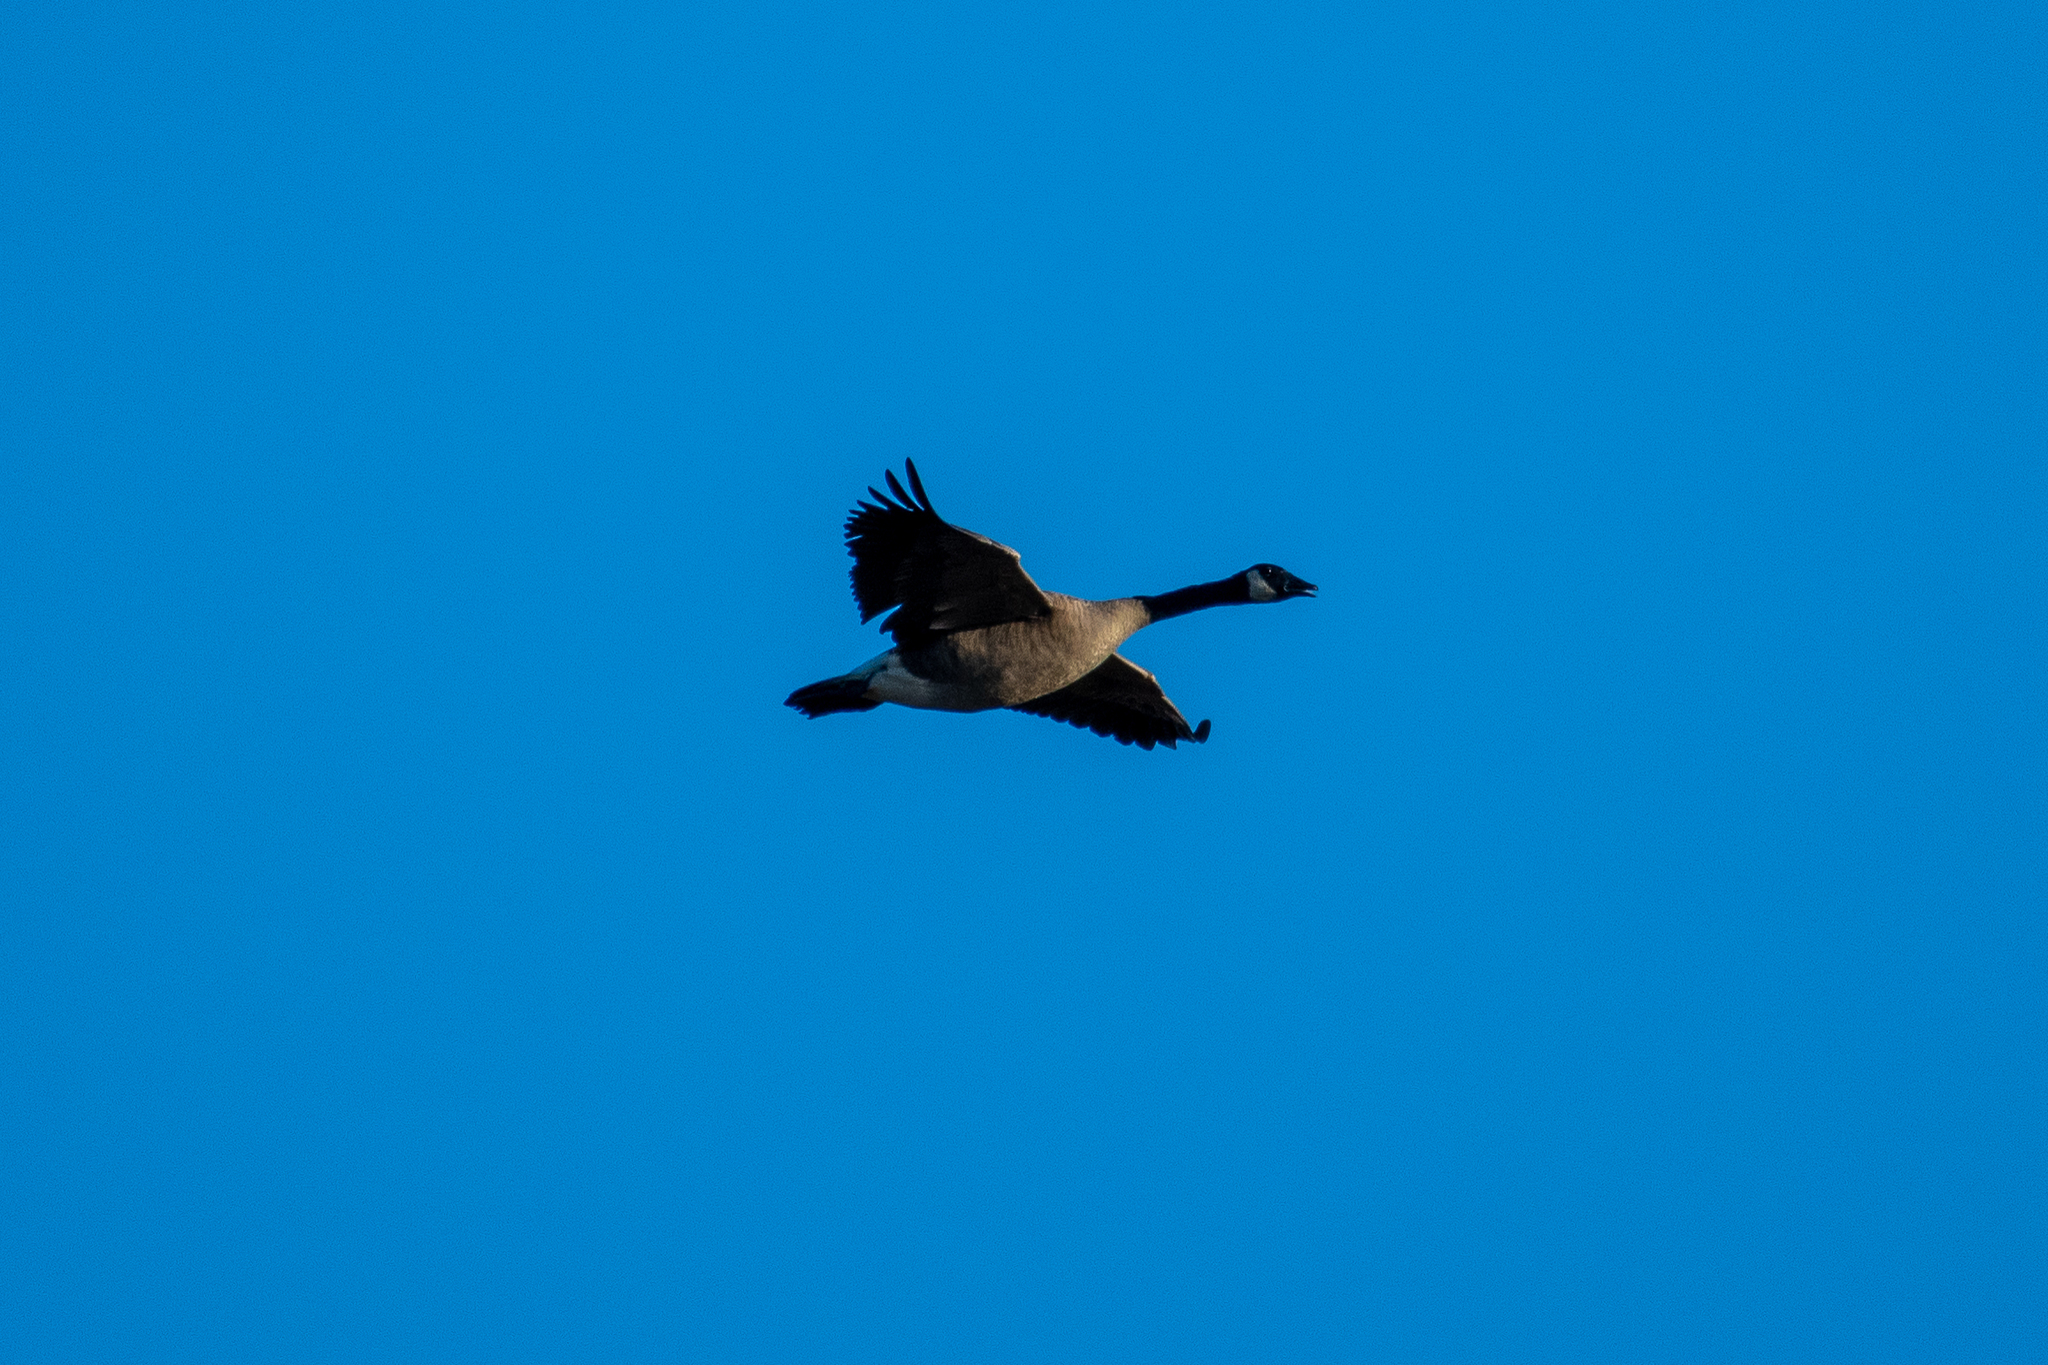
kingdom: Animalia
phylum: Chordata
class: Aves
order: Anseriformes
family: Anatidae
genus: Branta
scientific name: Branta canadensis
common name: Canada goose
